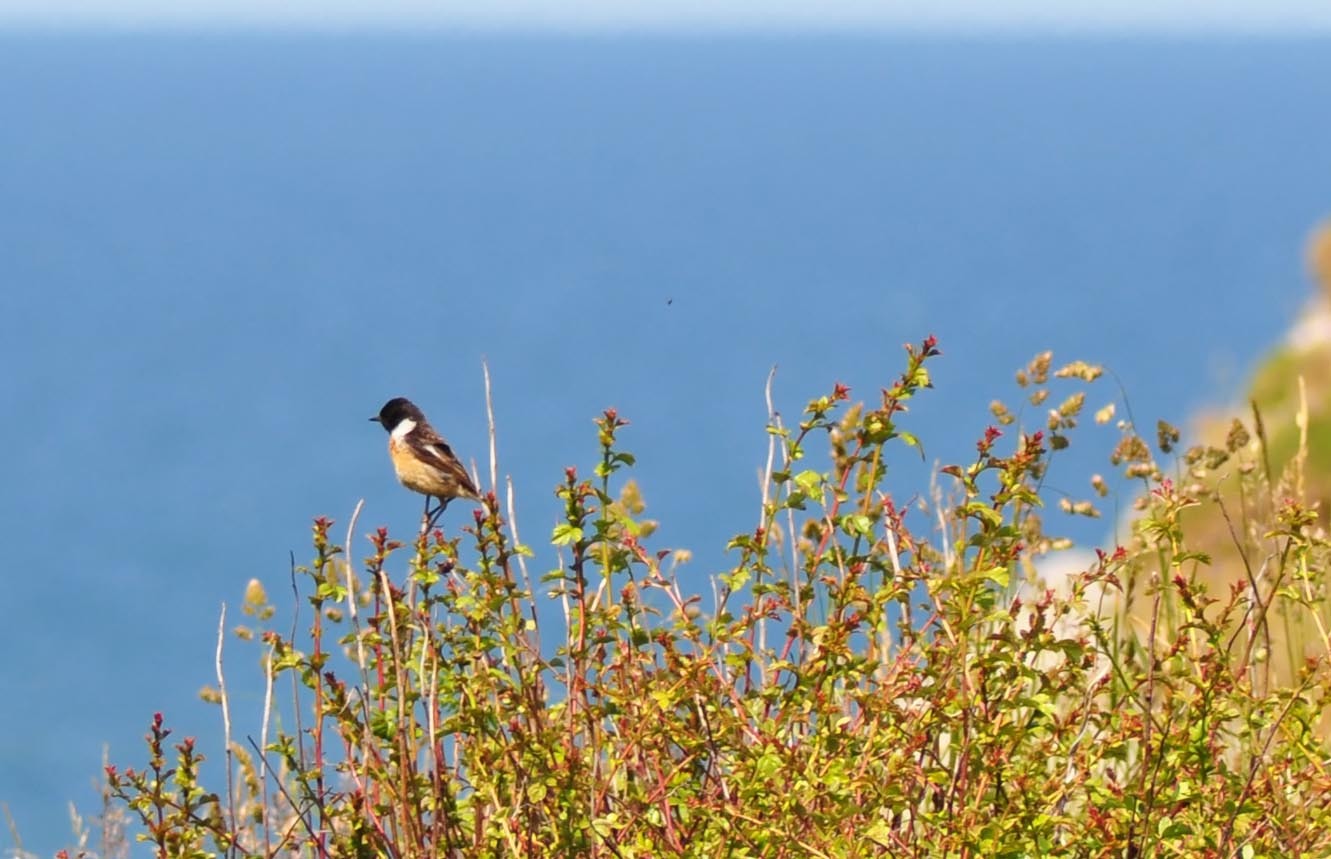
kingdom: Animalia
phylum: Chordata
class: Aves
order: Passeriformes
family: Muscicapidae
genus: Saxicola
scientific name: Saxicola rubicola
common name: European stonechat
